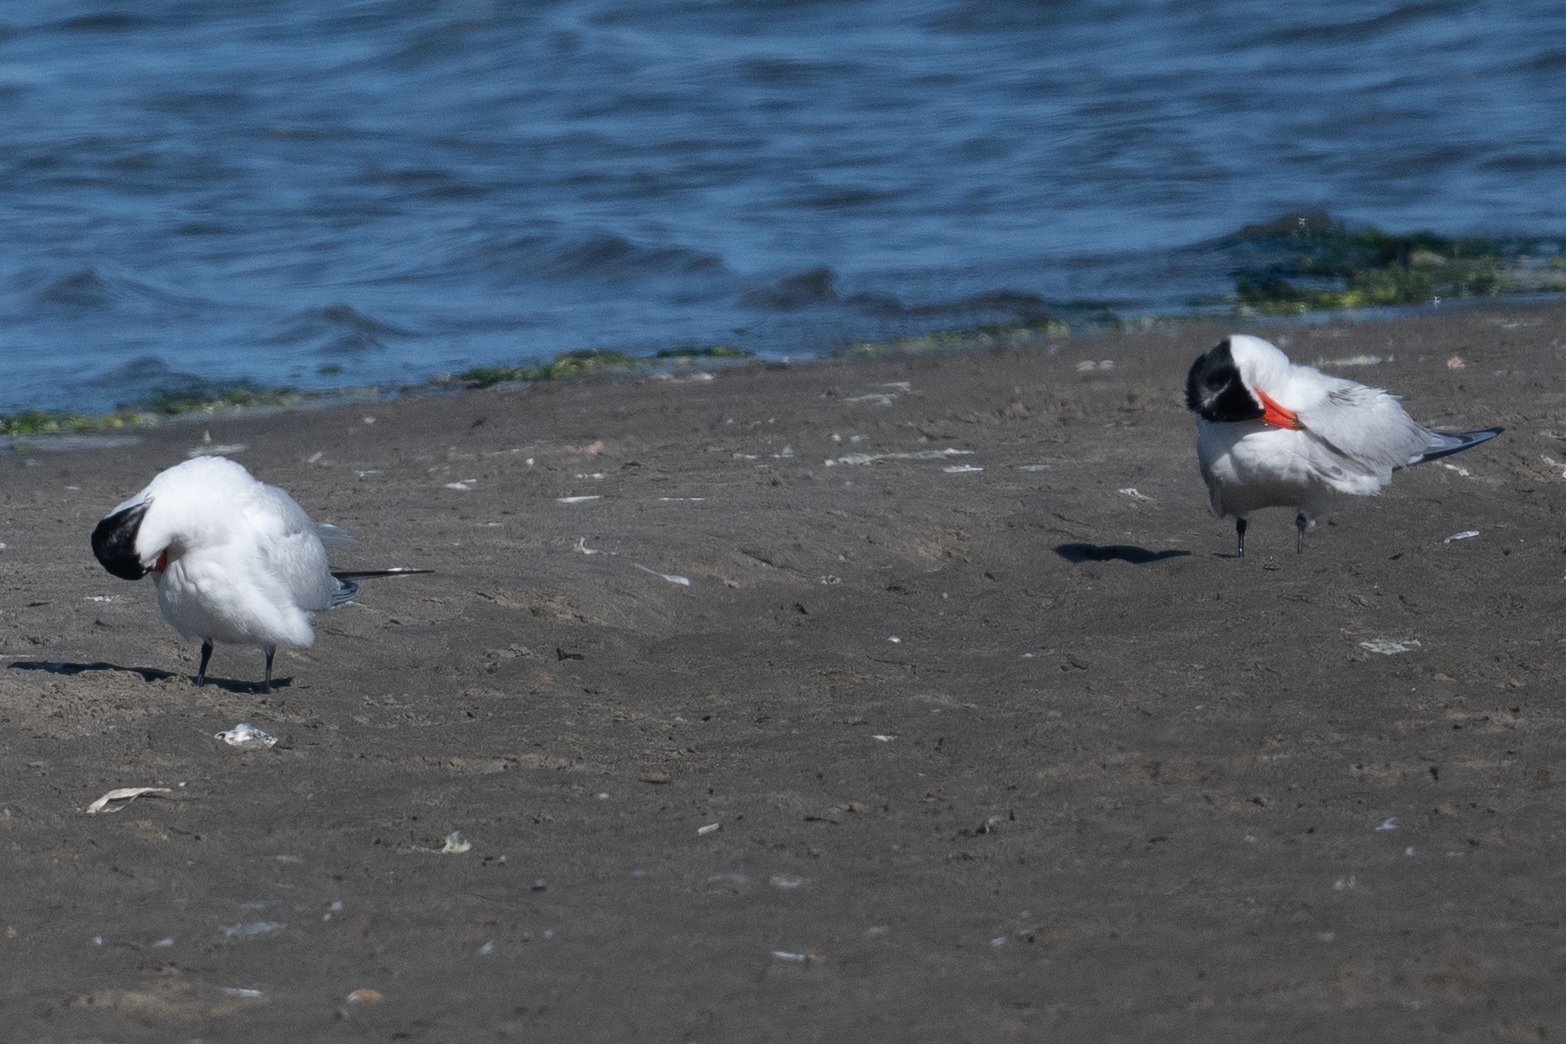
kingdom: Animalia
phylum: Chordata
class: Aves
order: Charadriiformes
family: Laridae
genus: Hydroprogne
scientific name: Hydroprogne caspia
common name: Caspian tern
